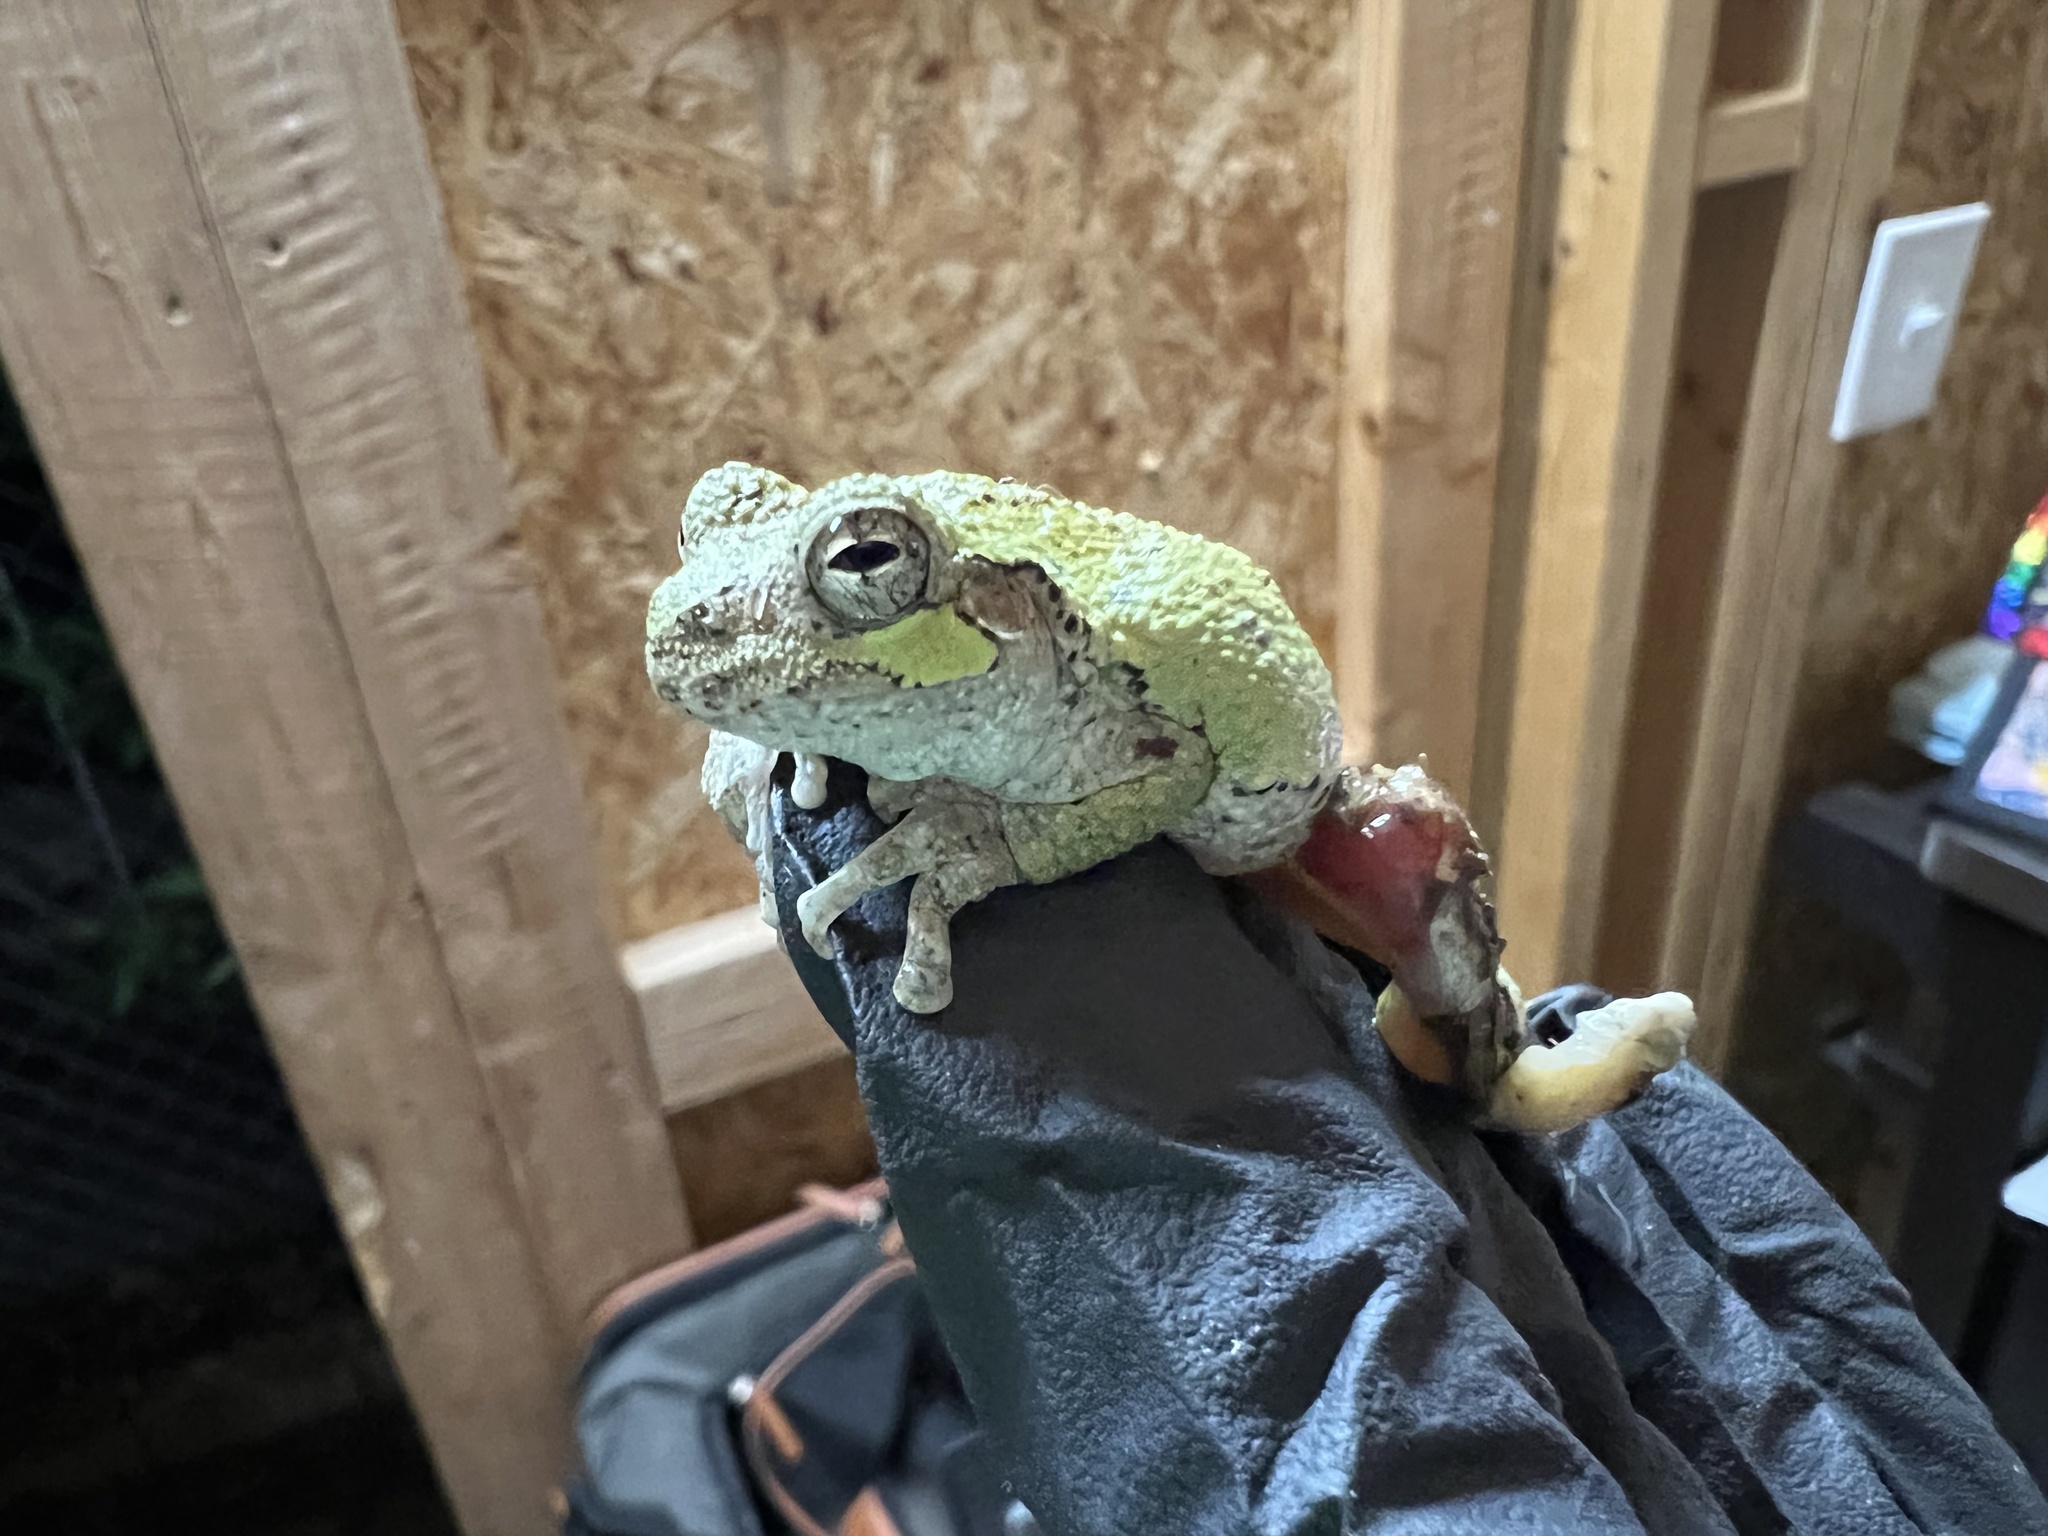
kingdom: Animalia
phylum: Chordata
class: Amphibia
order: Anura
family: Hylidae
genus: Dryophytes
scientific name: Dryophytes chrysoscelis
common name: Cope's gray treefrog
